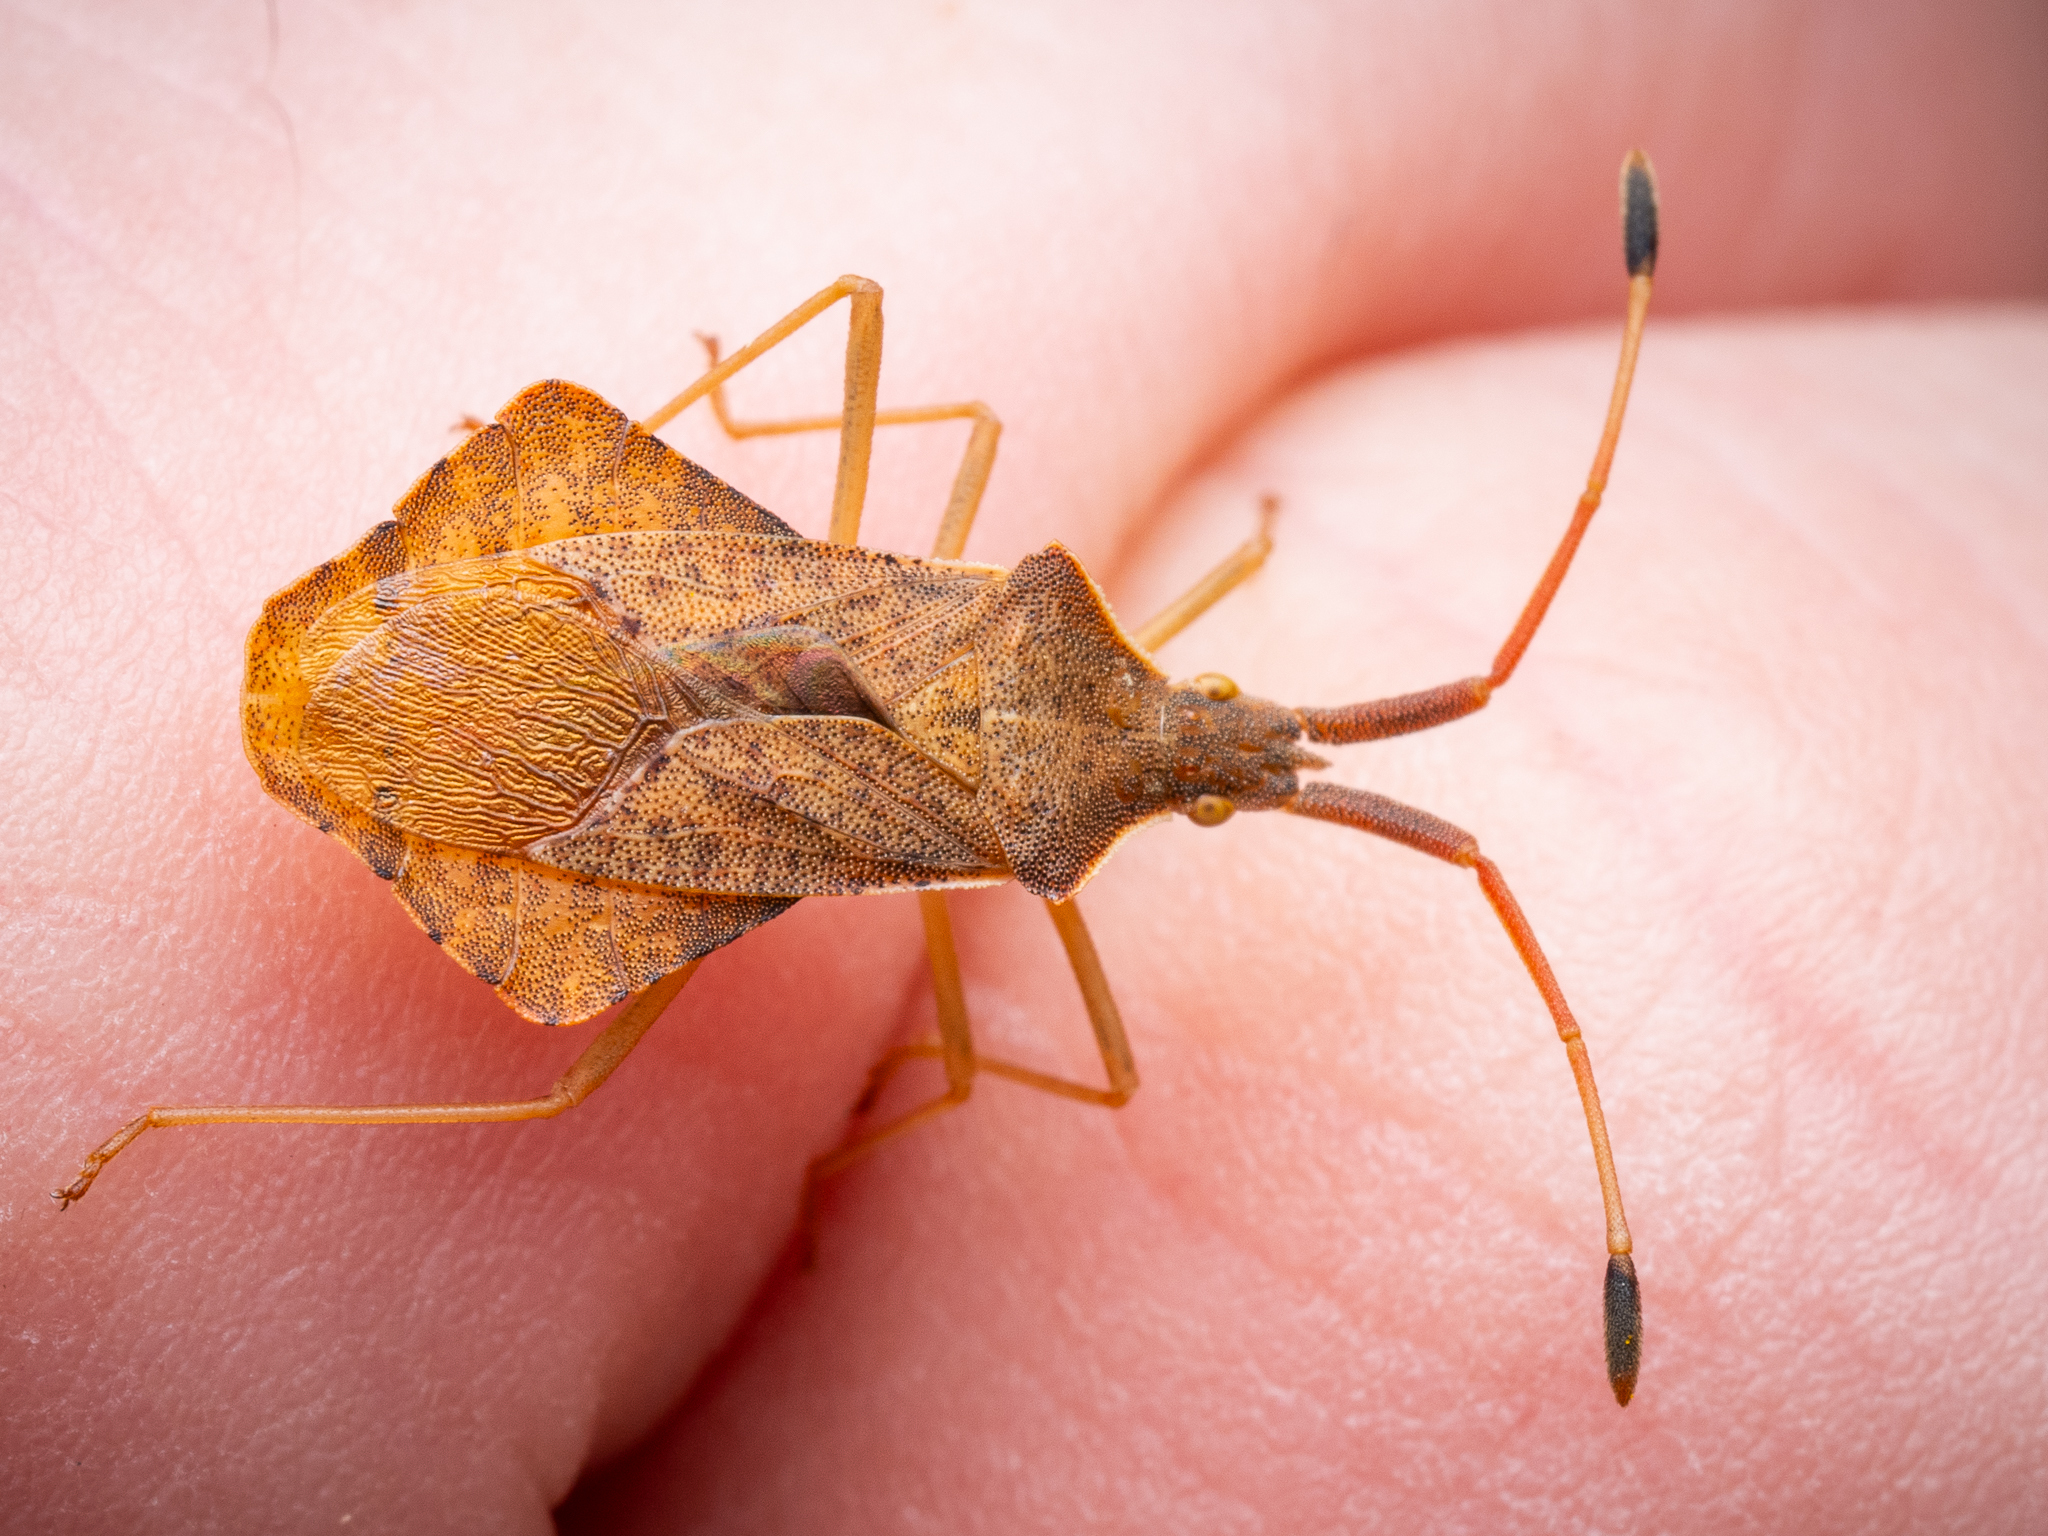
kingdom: Animalia
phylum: Arthropoda
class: Insecta
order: Hemiptera
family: Coreidae
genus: Syromastus
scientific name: Syromastus rhombeus
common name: Rhombic leatherbug
